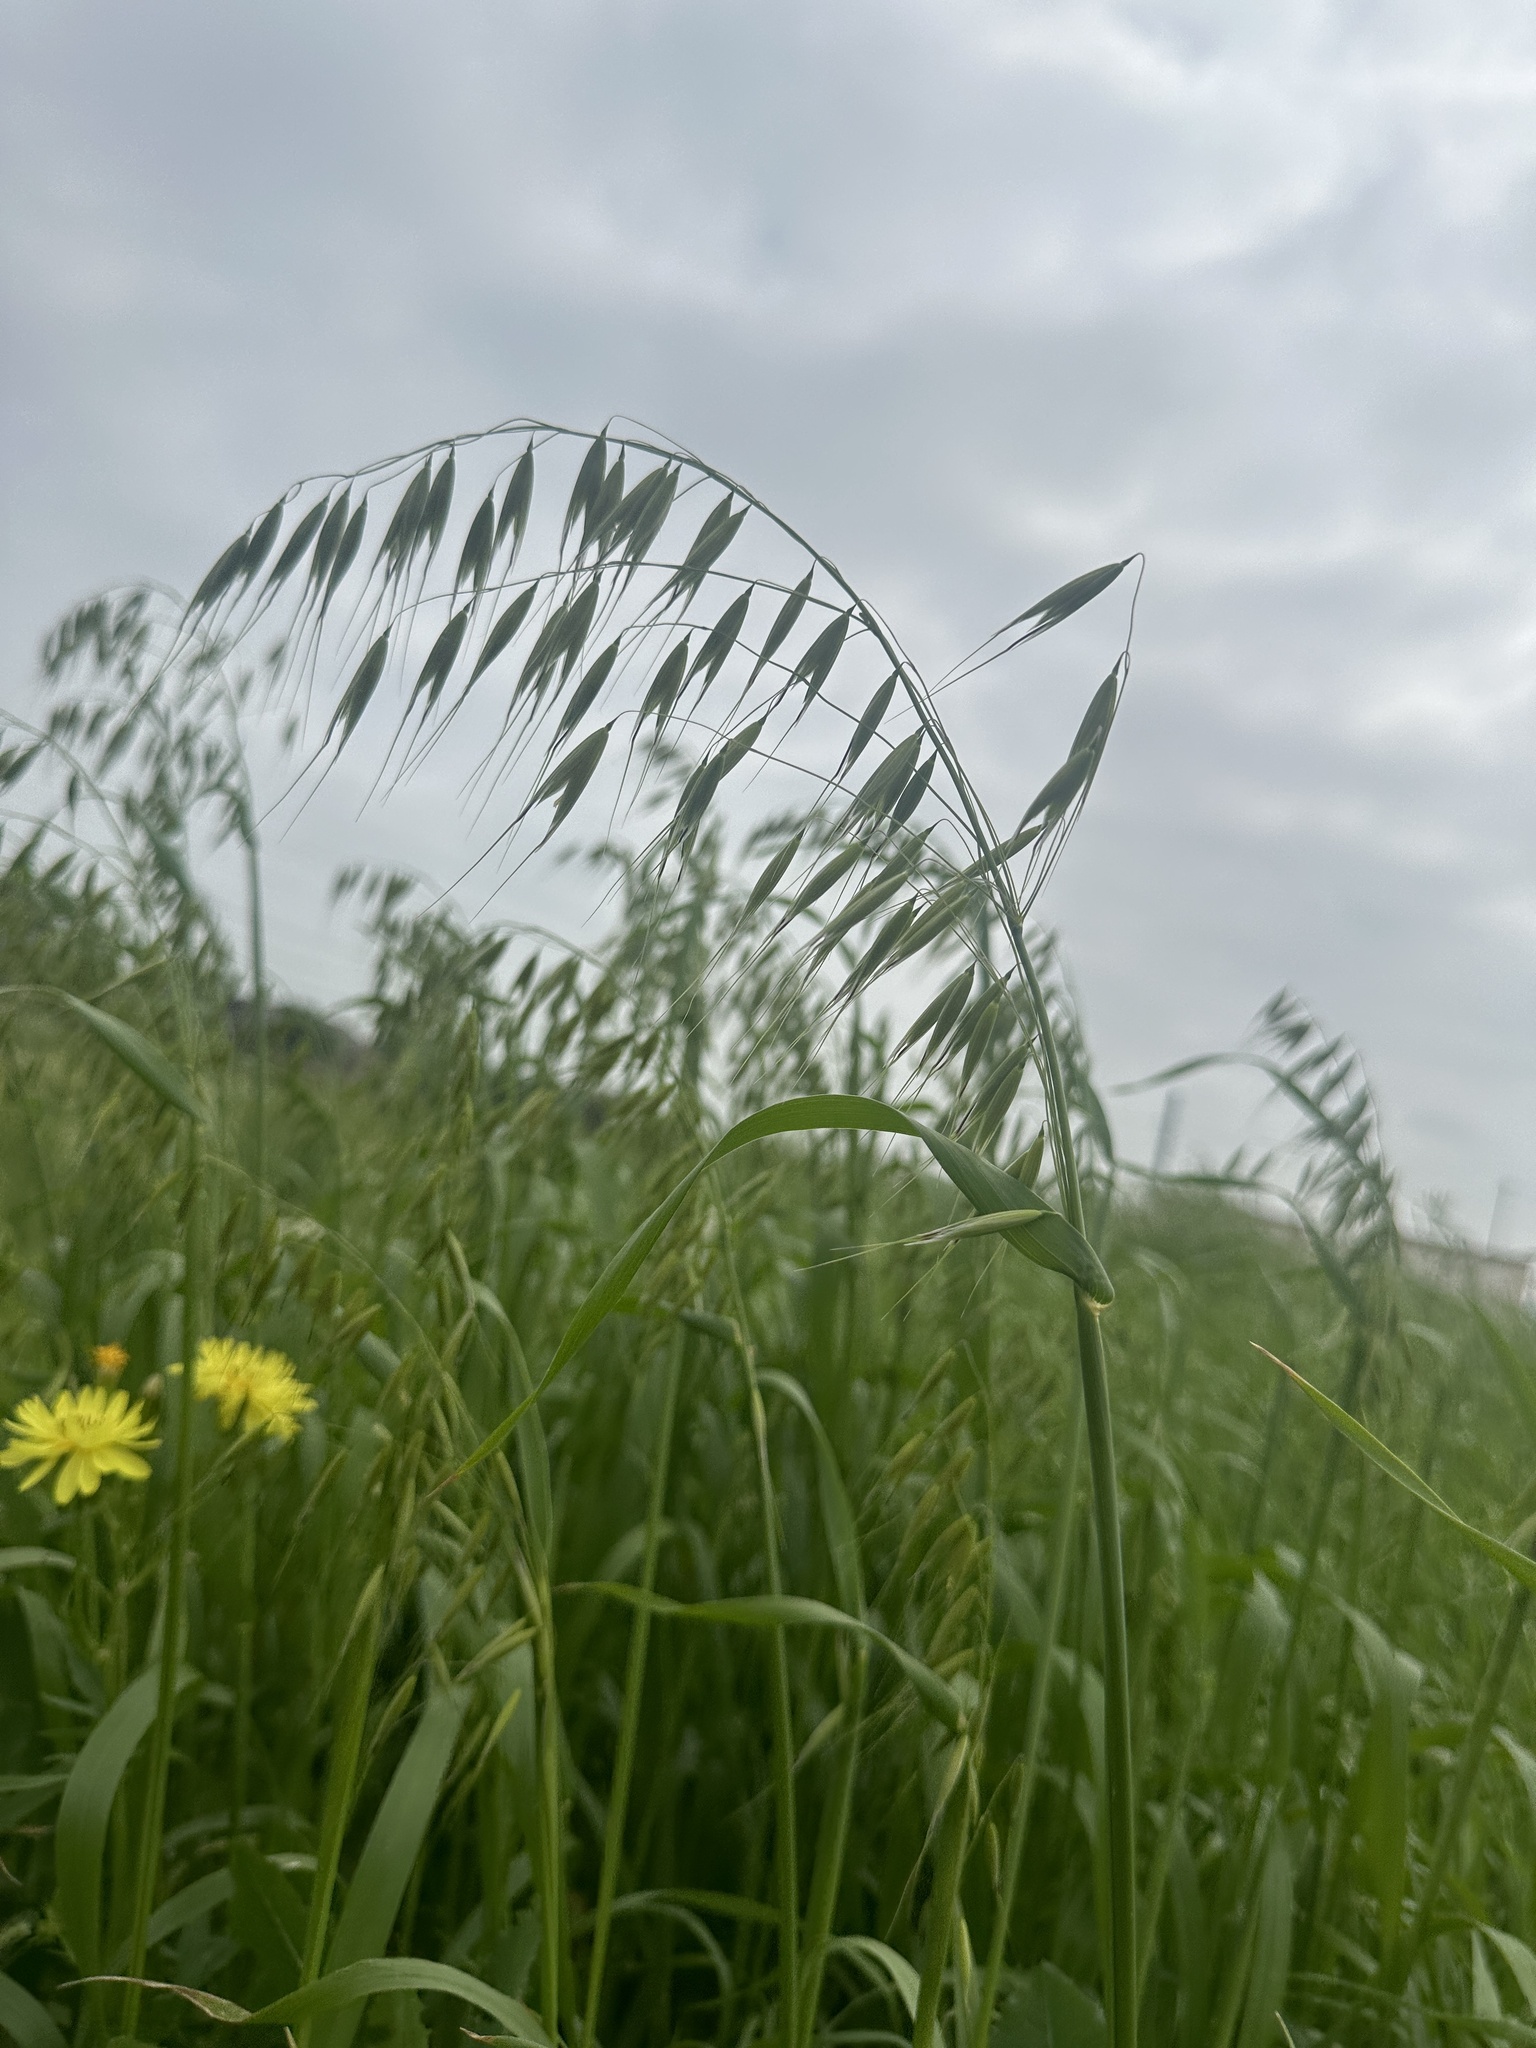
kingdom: Plantae
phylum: Tracheophyta
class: Liliopsida
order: Poales
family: Poaceae
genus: Avena
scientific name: Avena fatua
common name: Wild oat
